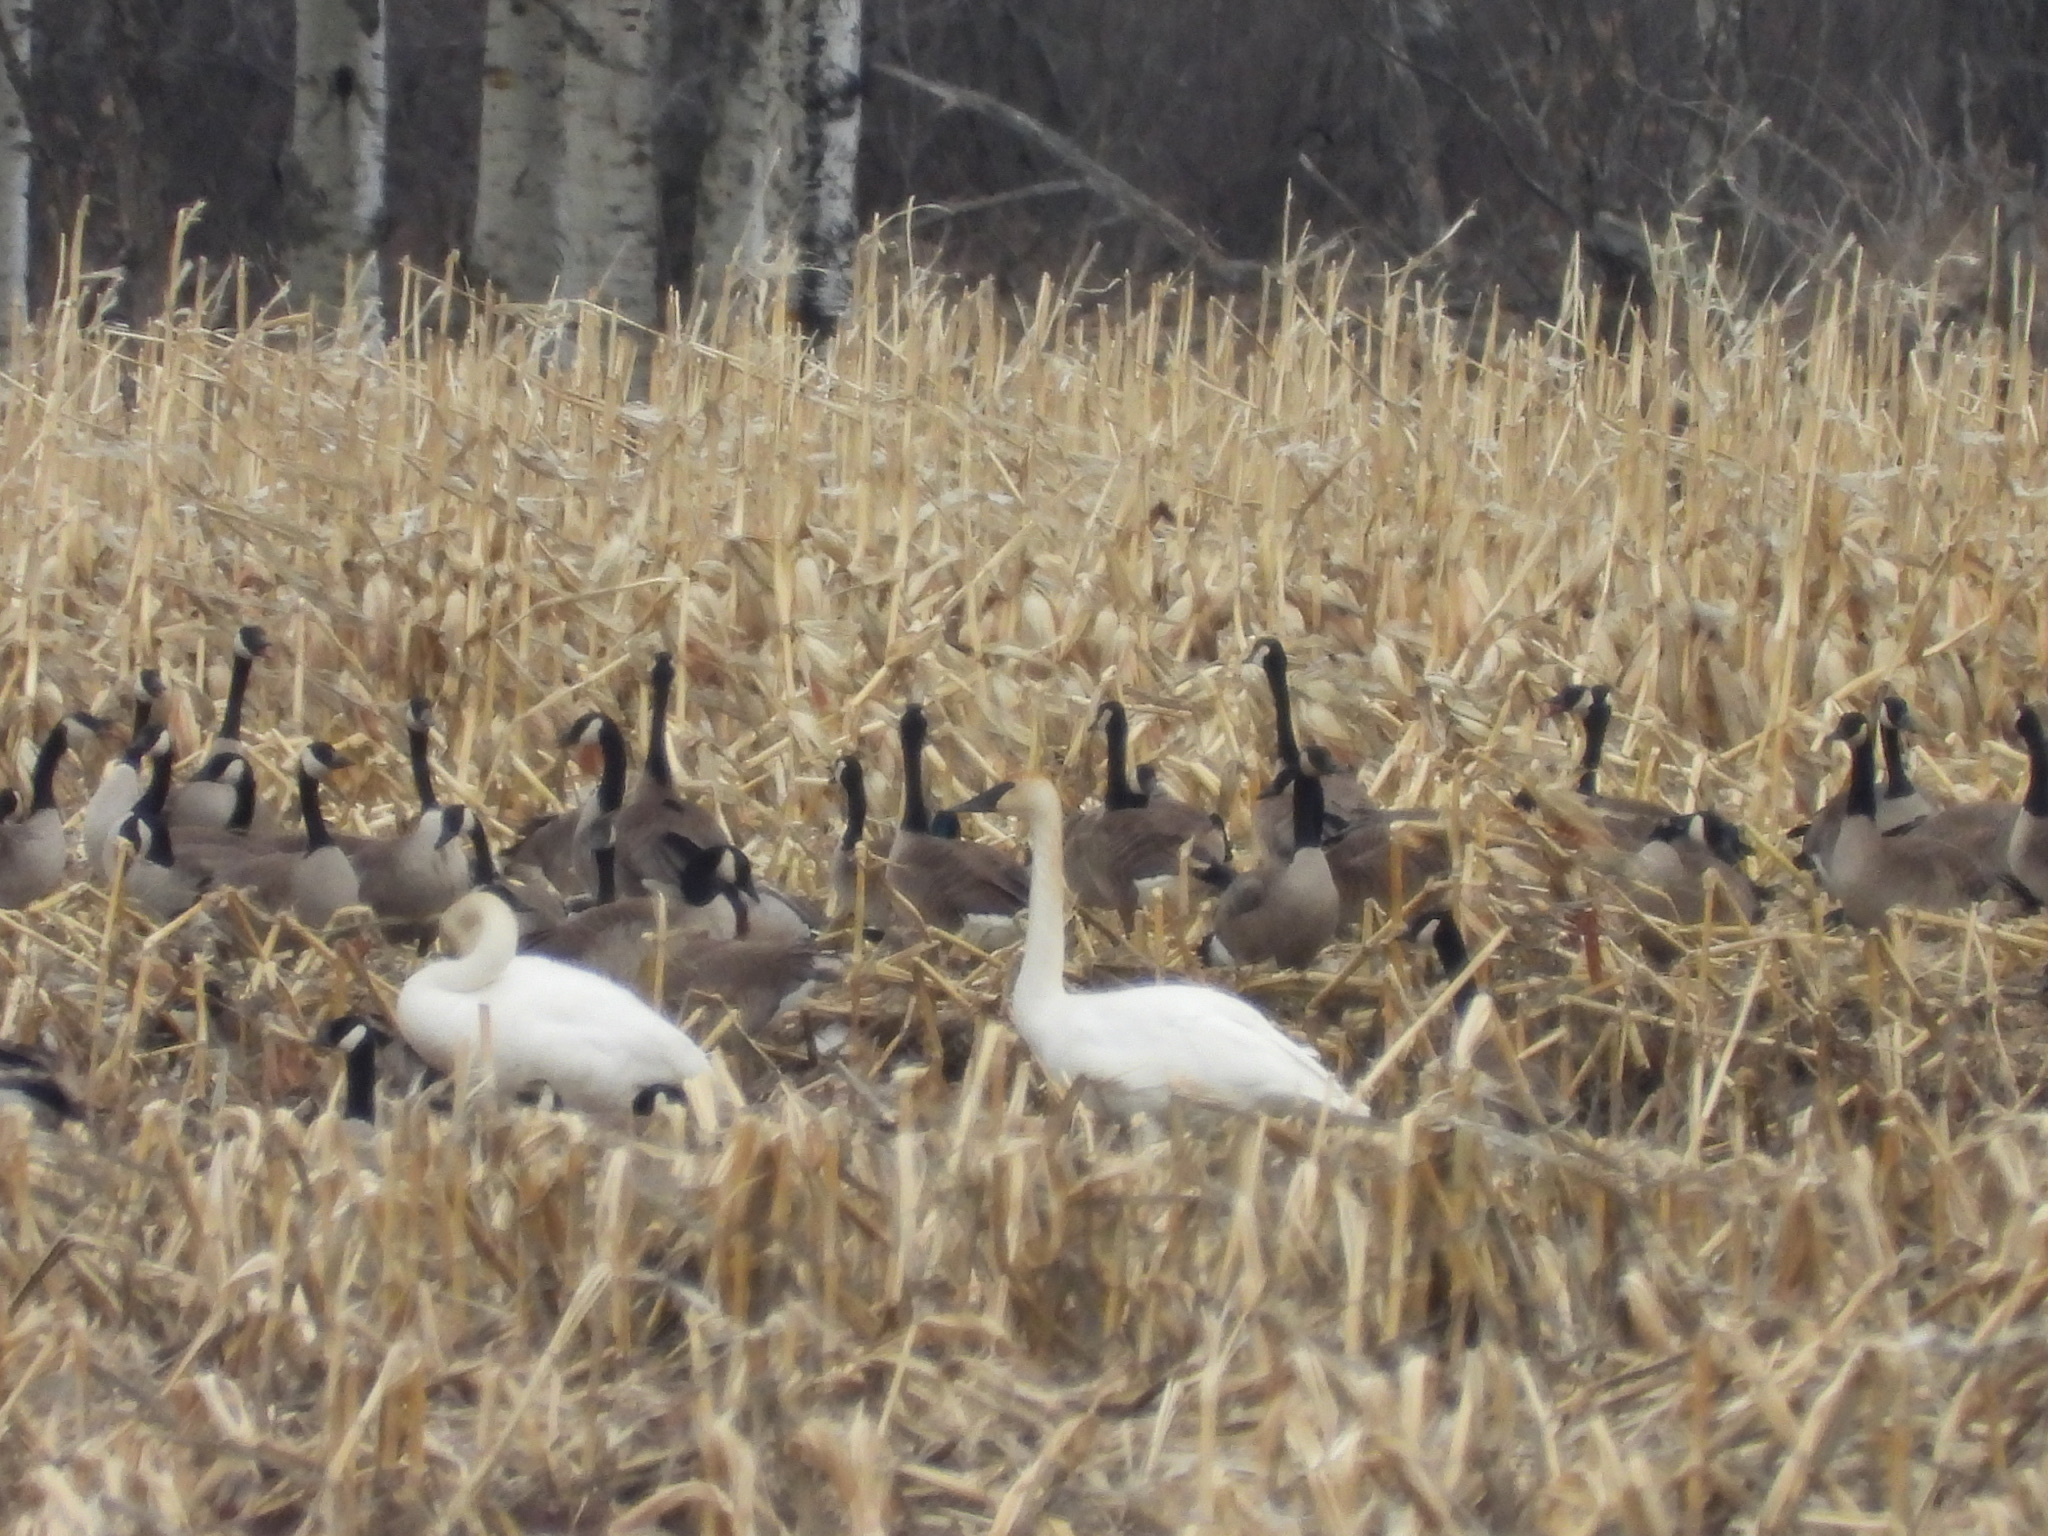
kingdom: Animalia
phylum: Chordata
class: Aves
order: Anseriformes
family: Anatidae
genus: Cygnus
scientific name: Cygnus buccinator
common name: Trumpeter swan
